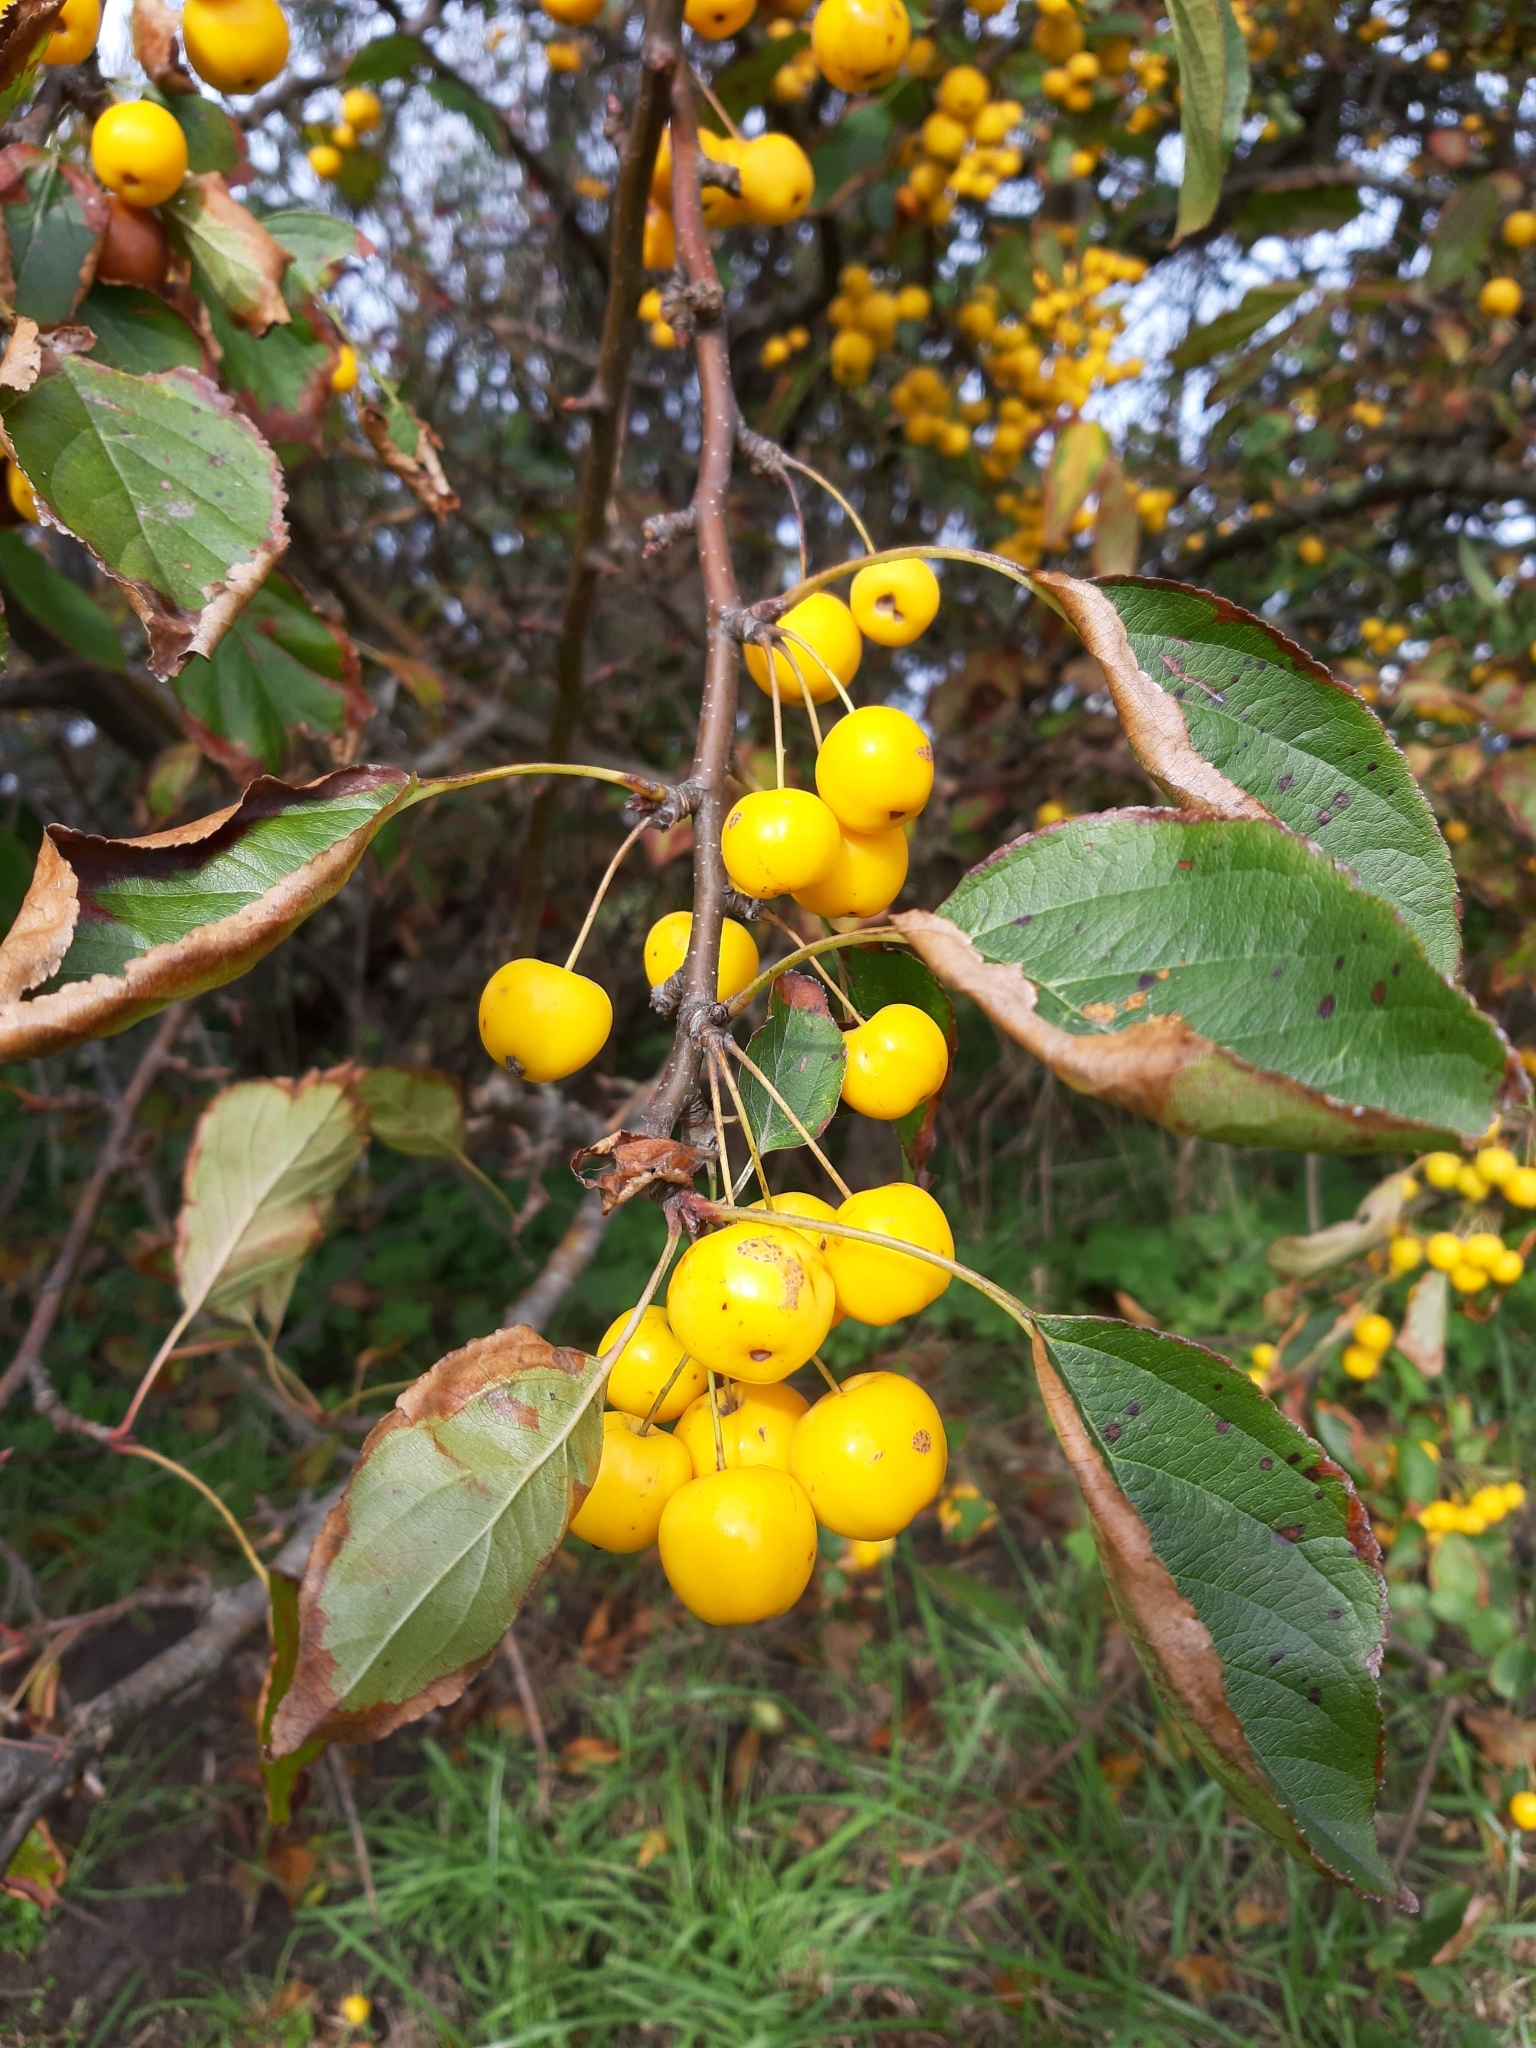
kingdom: Plantae
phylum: Tracheophyta
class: Magnoliopsida
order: Rosales
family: Rosaceae
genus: Malus
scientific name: Malus baccata
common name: Siberian crab
